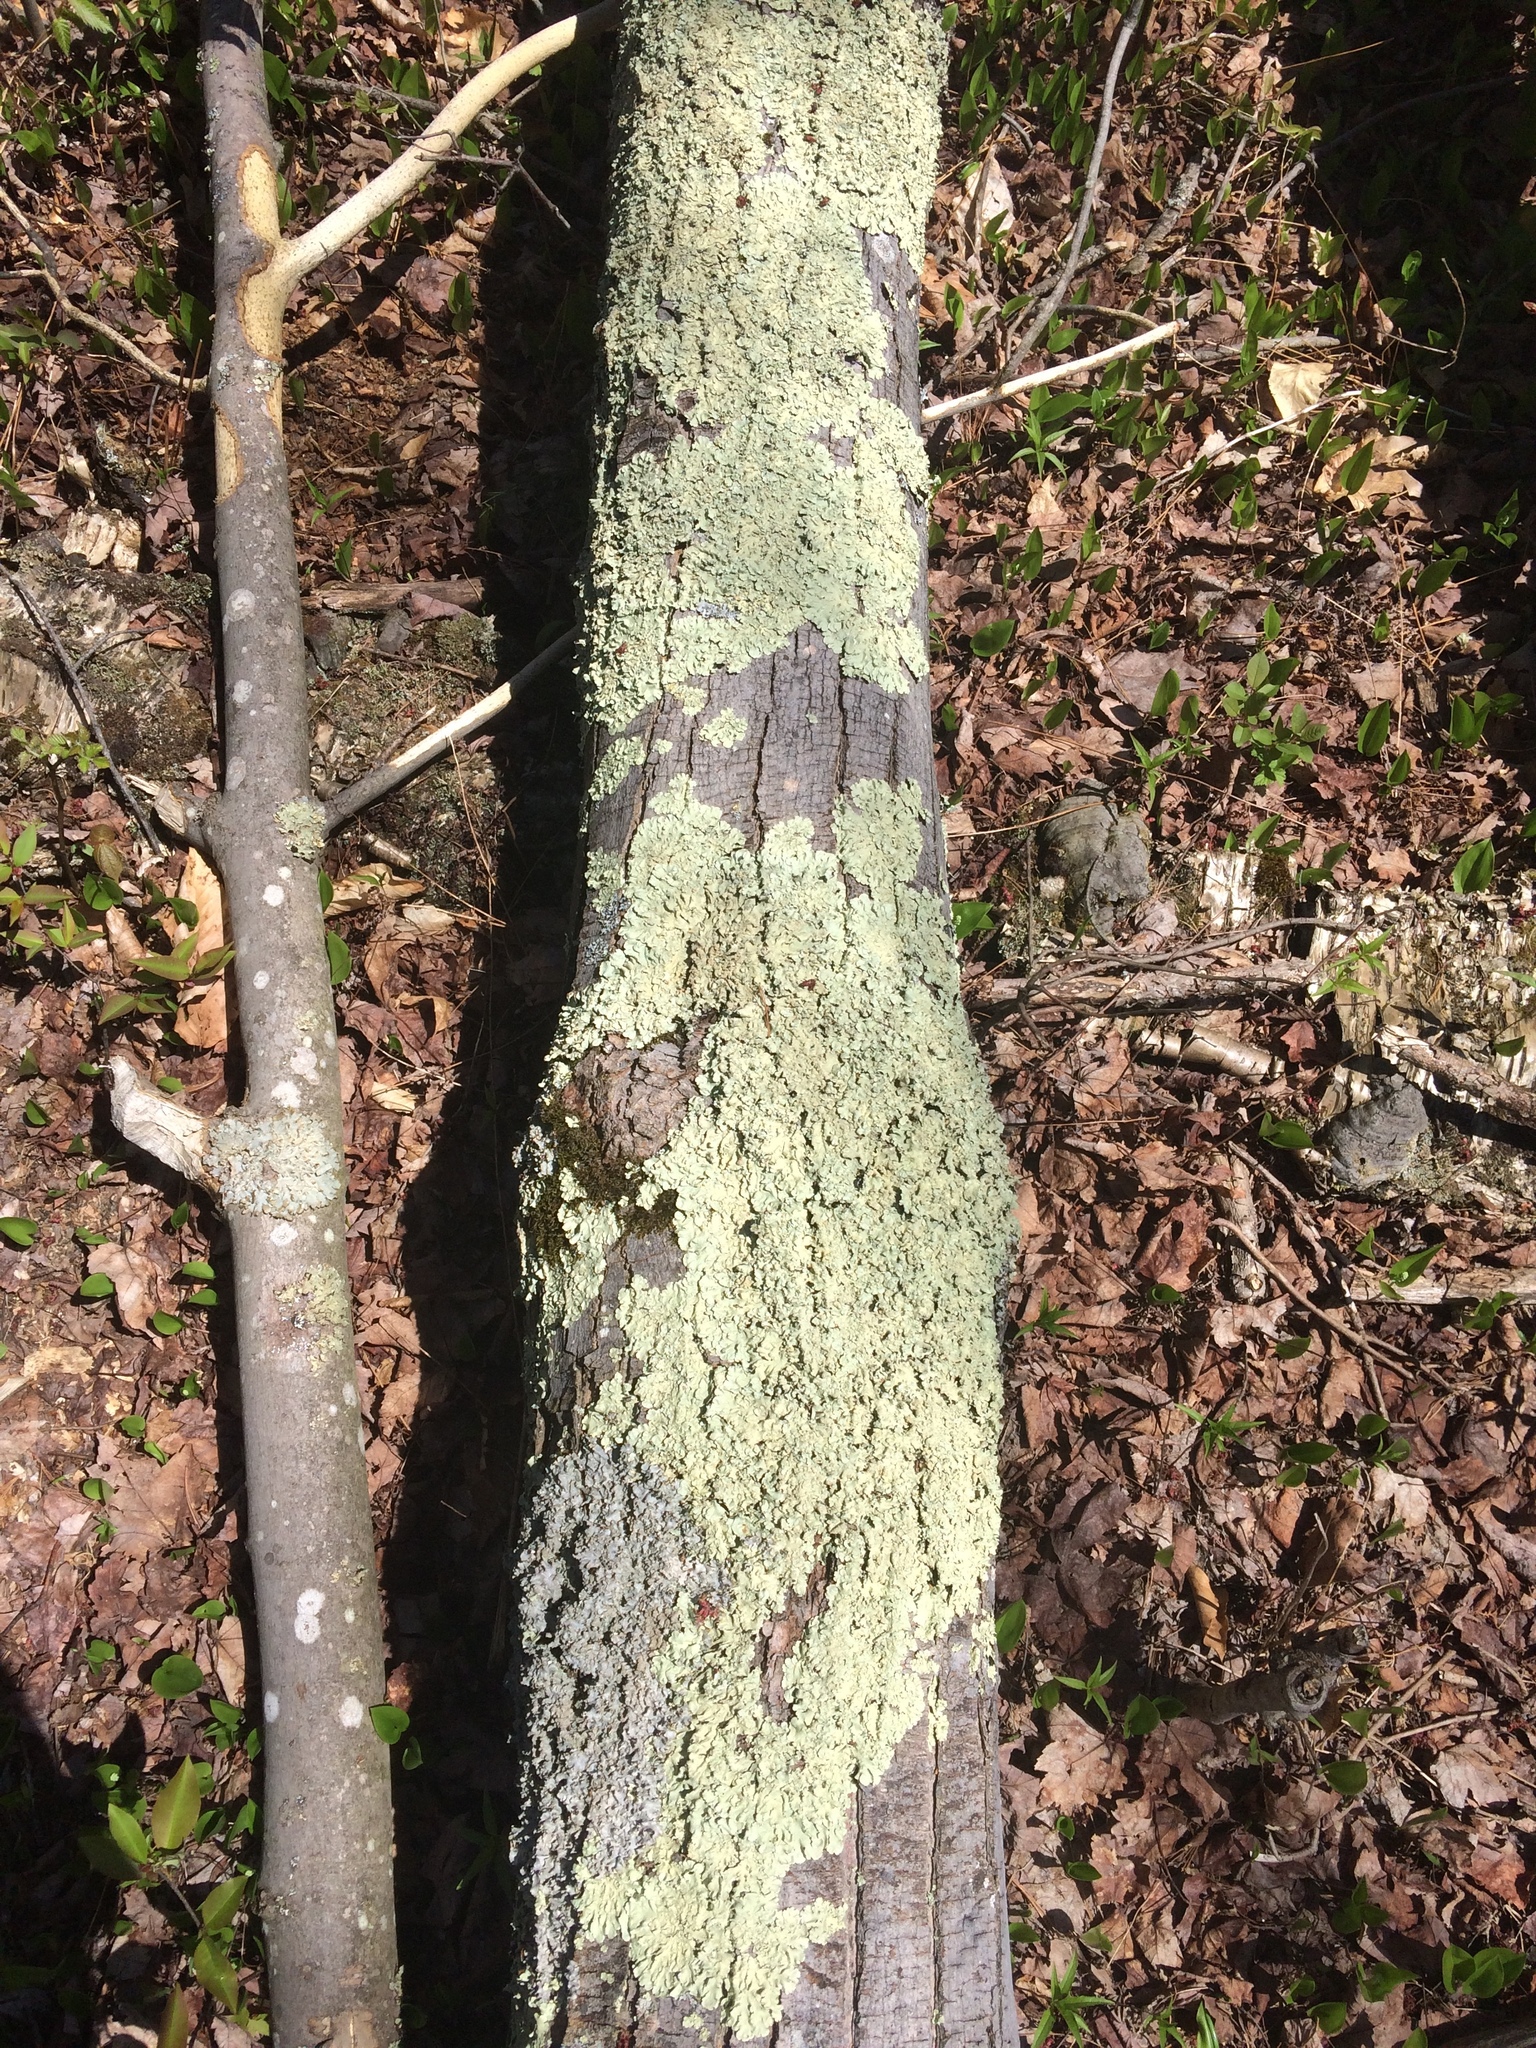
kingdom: Fungi
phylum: Ascomycota
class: Lecanoromycetes
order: Lecanorales
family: Parmeliaceae
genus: Flavoparmelia
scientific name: Flavoparmelia caperata
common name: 40-mile per hour lichen
